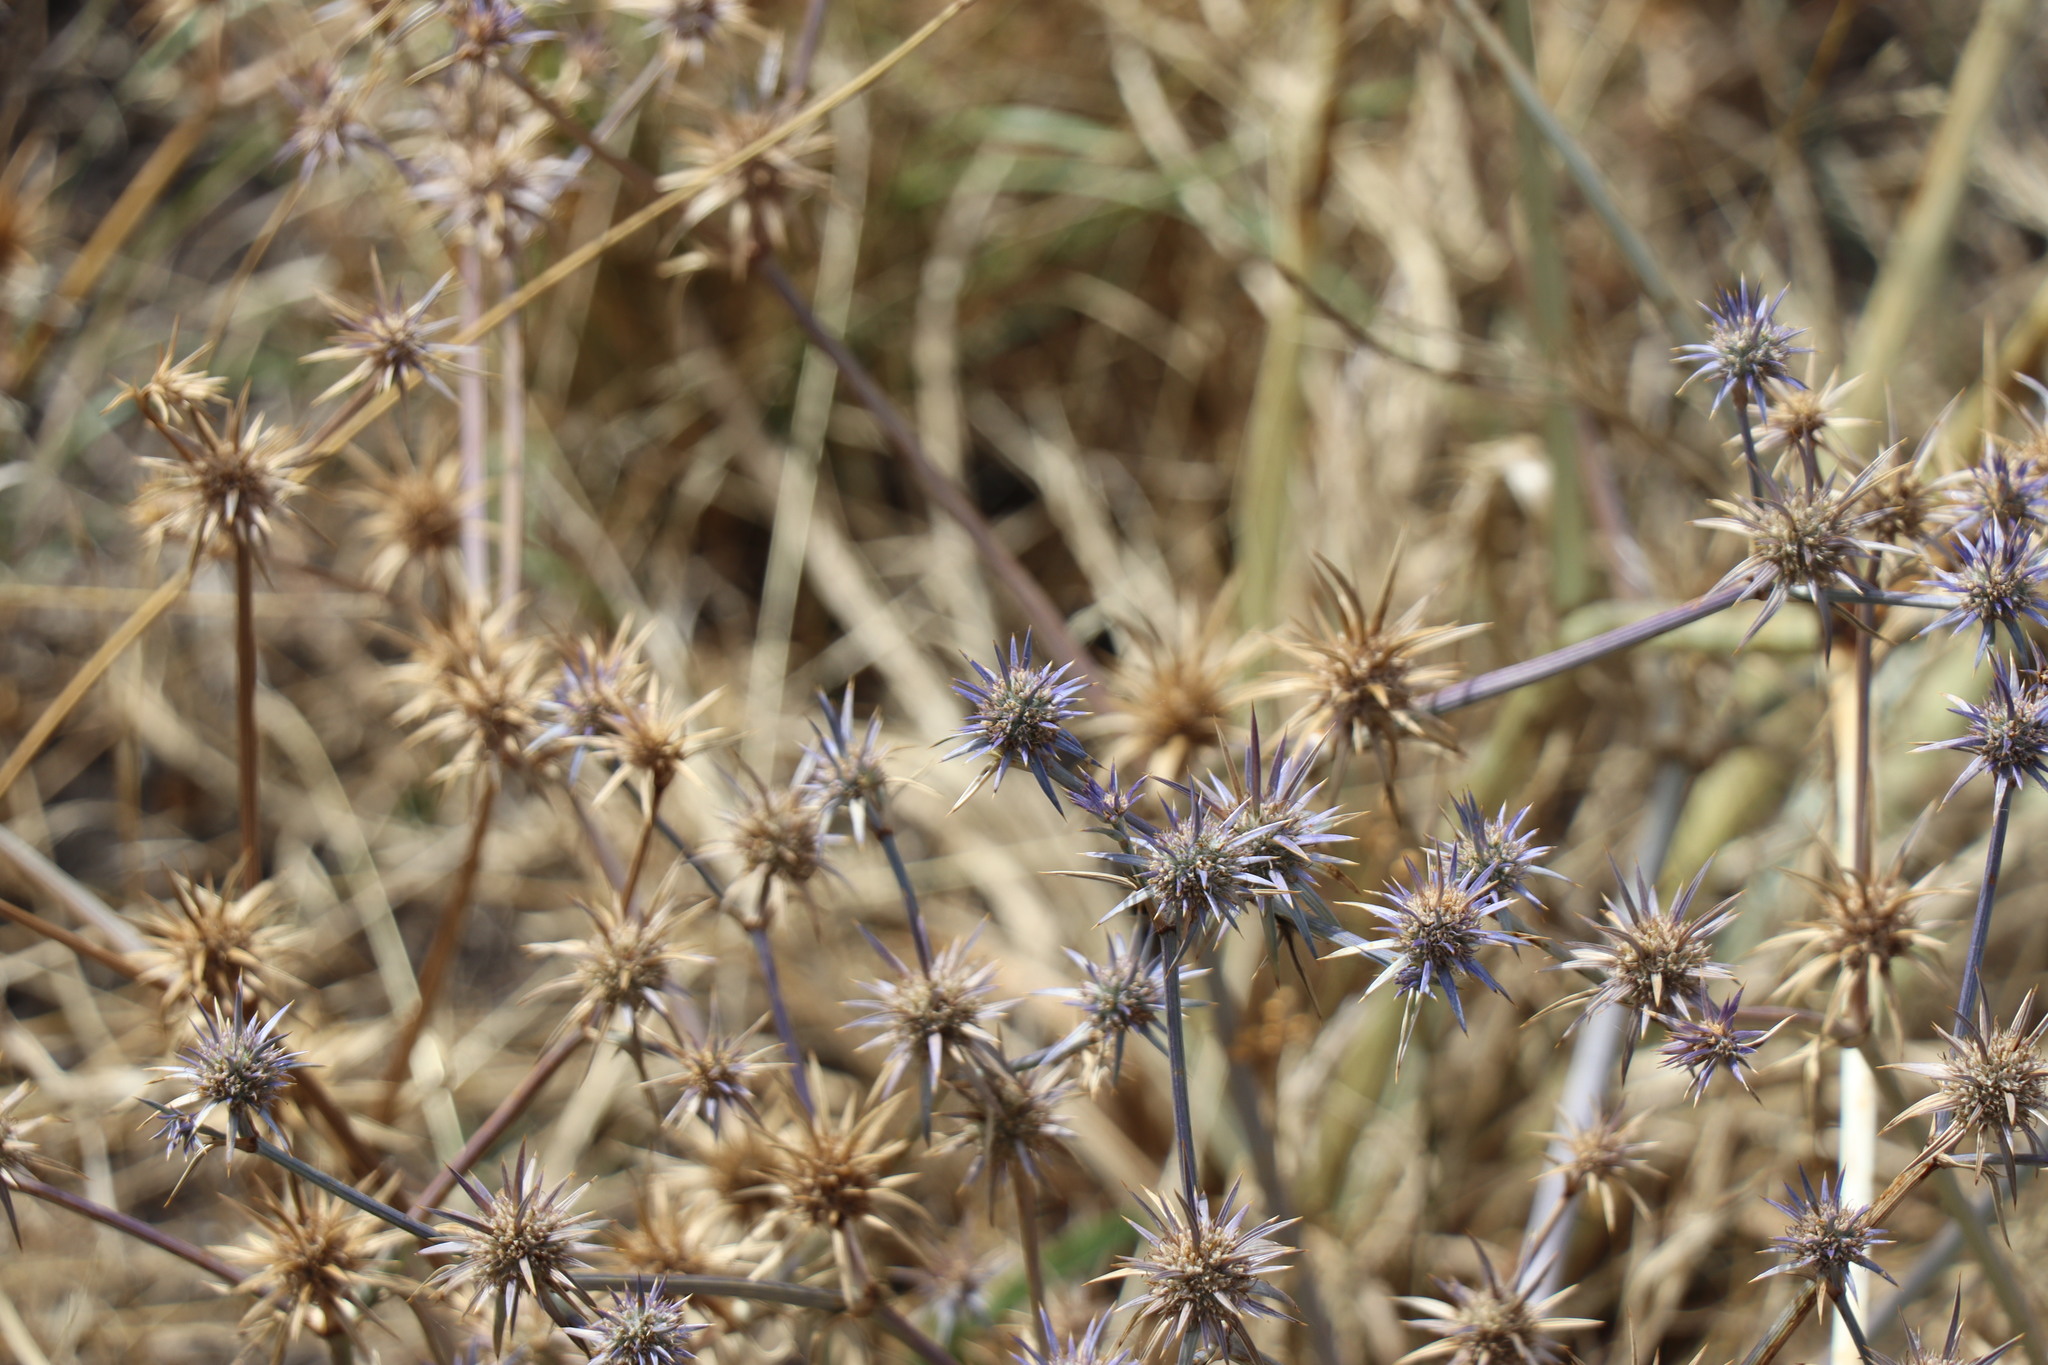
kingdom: Plantae
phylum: Tracheophyta
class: Magnoliopsida
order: Apiales
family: Apiaceae
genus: Eryngium
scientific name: Eryngium ovinum
